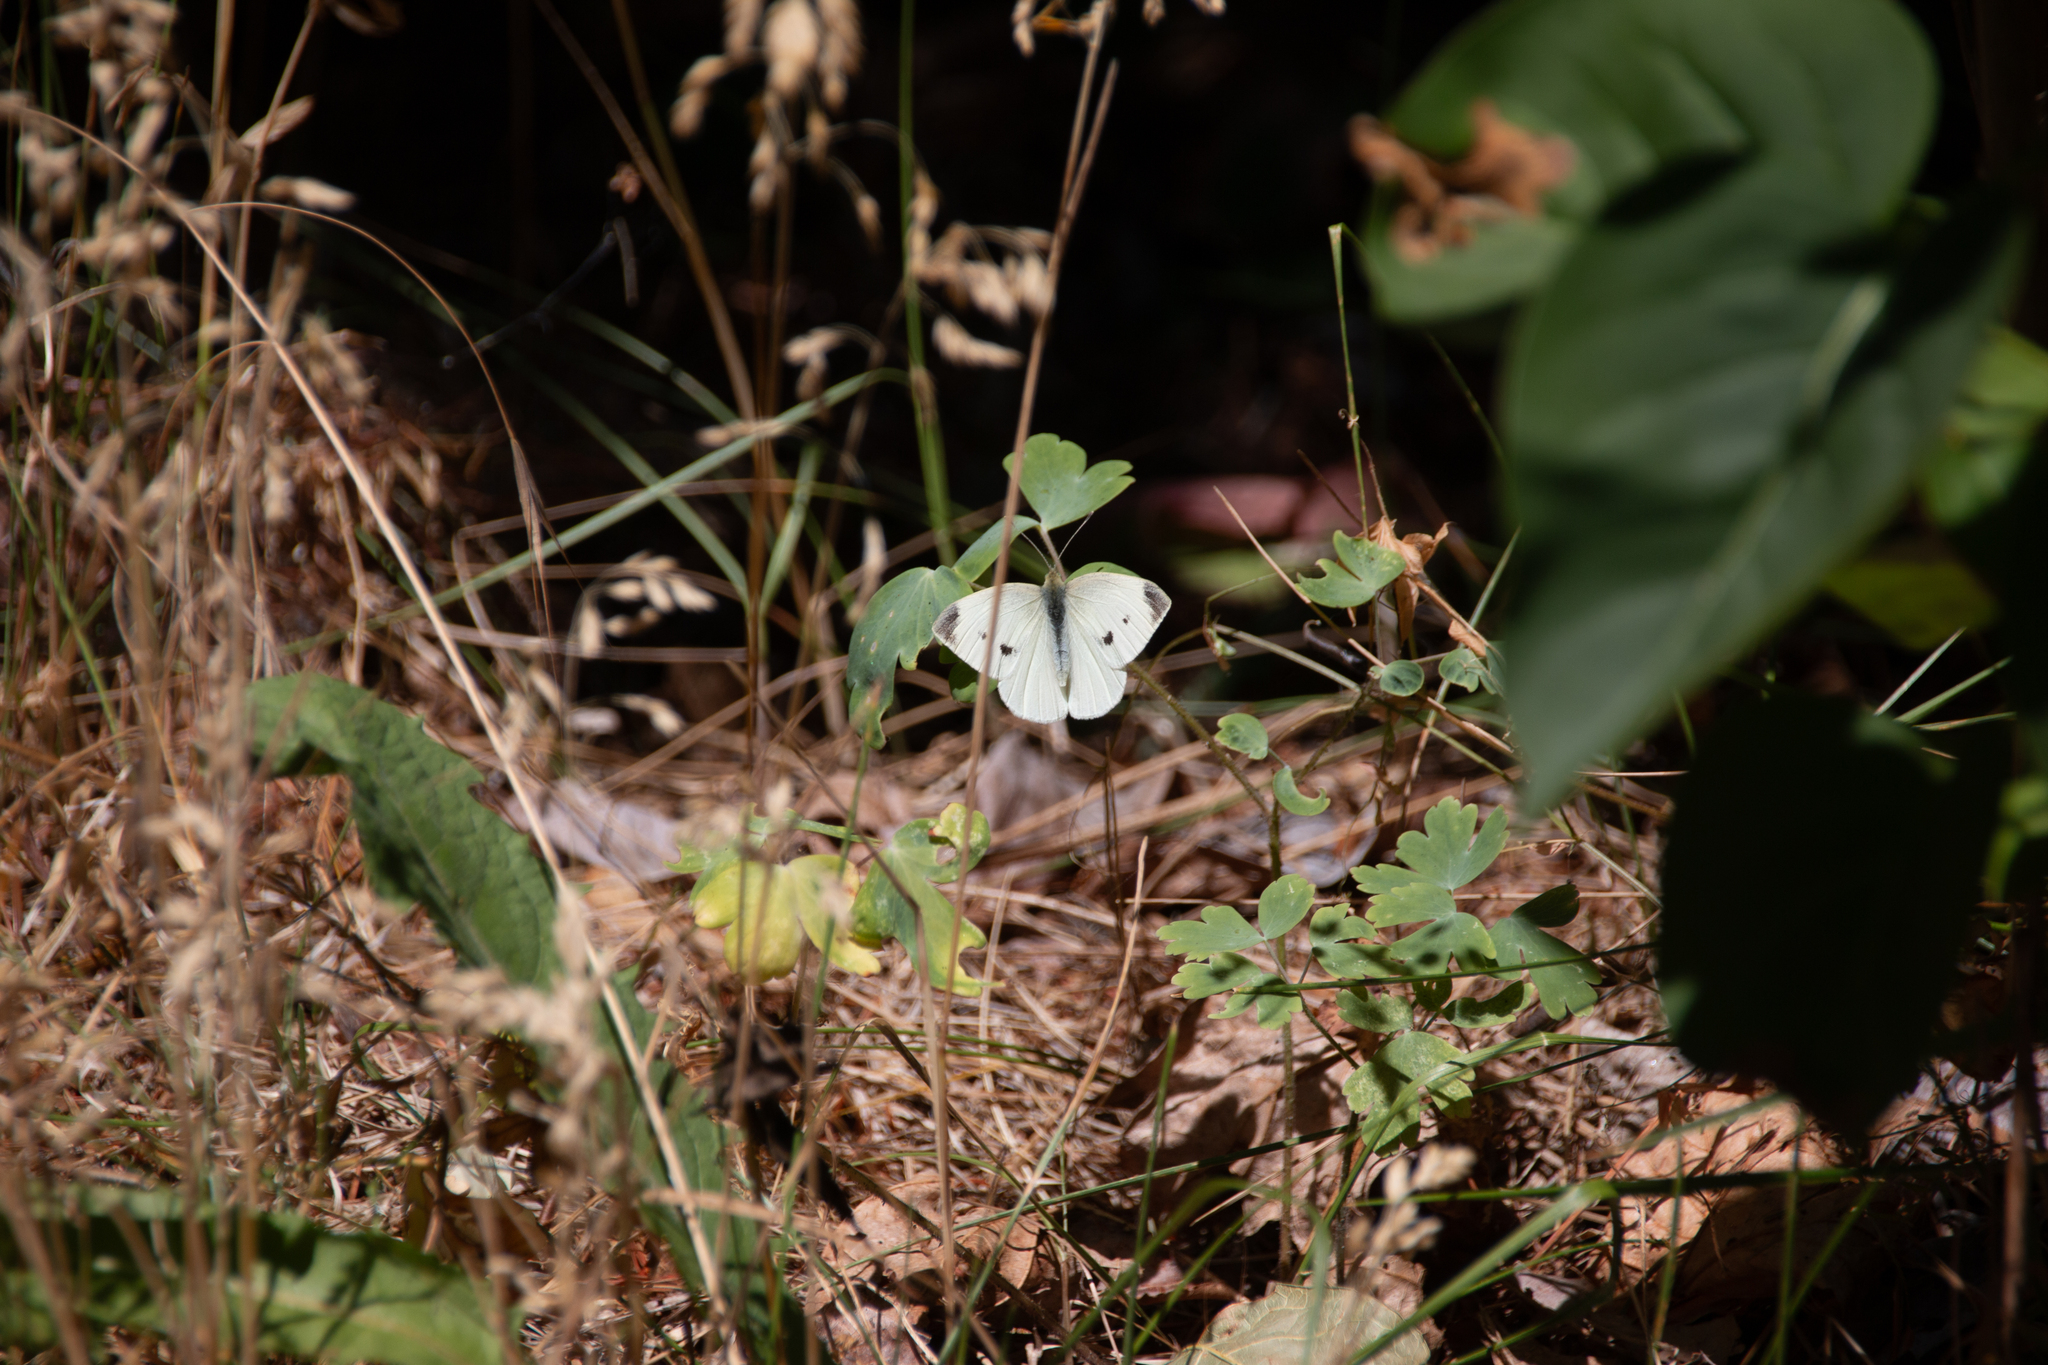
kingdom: Animalia
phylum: Arthropoda
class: Insecta
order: Lepidoptera
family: Pieridae
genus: Pieris
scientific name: Pieris rapae
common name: Small white
